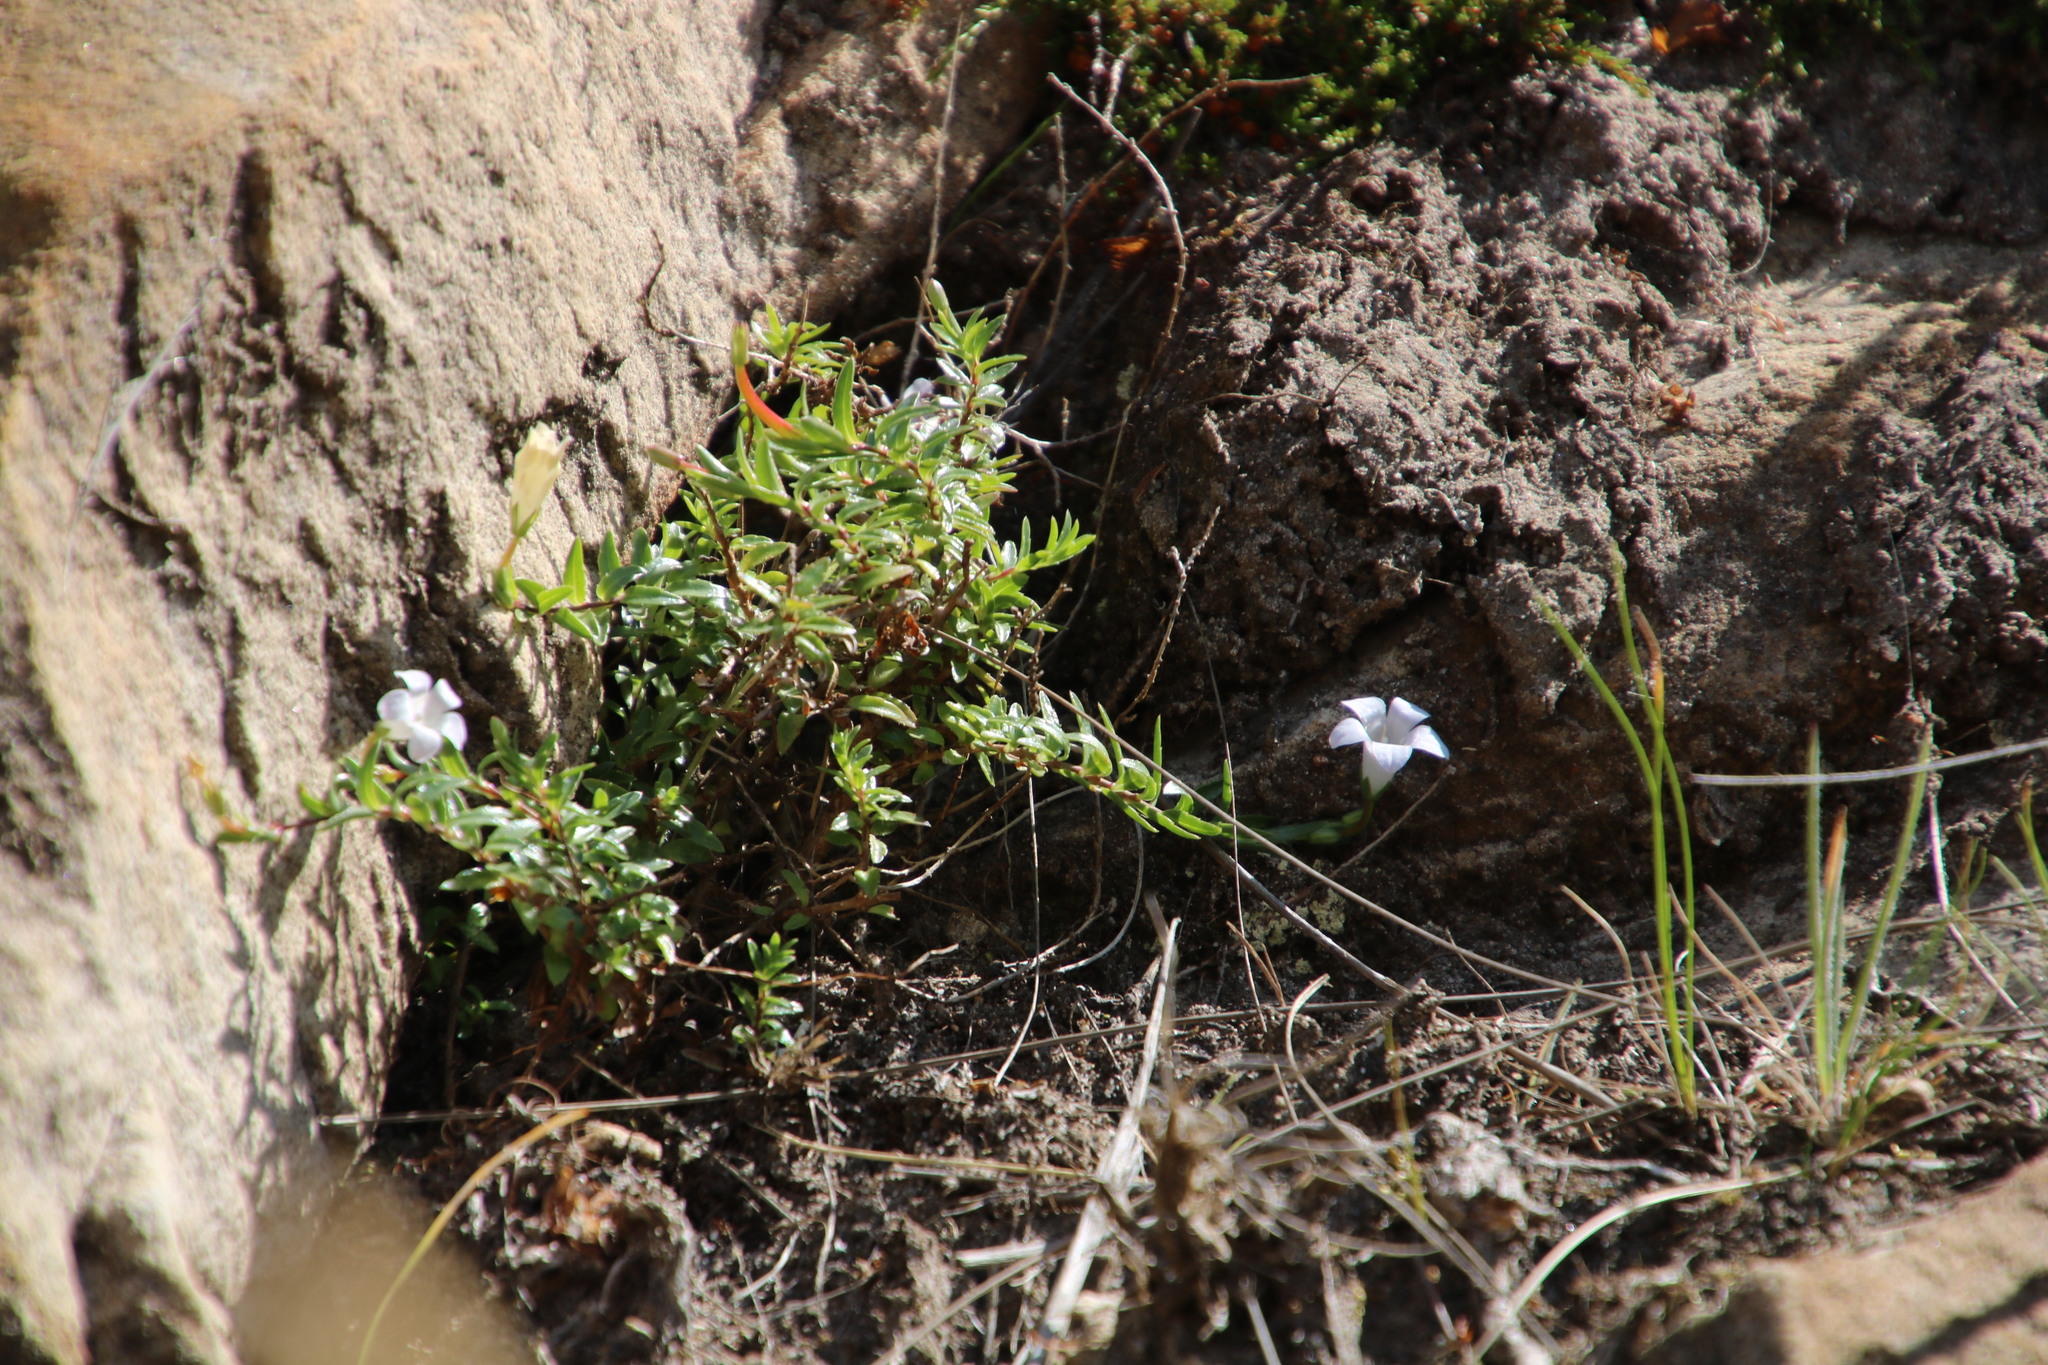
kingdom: Plantae
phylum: Tracheophyta
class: Magnoliopsida
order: Asterales
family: Campanulaceae
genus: Prismatocarpus
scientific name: Prismatocarpus nitidus
